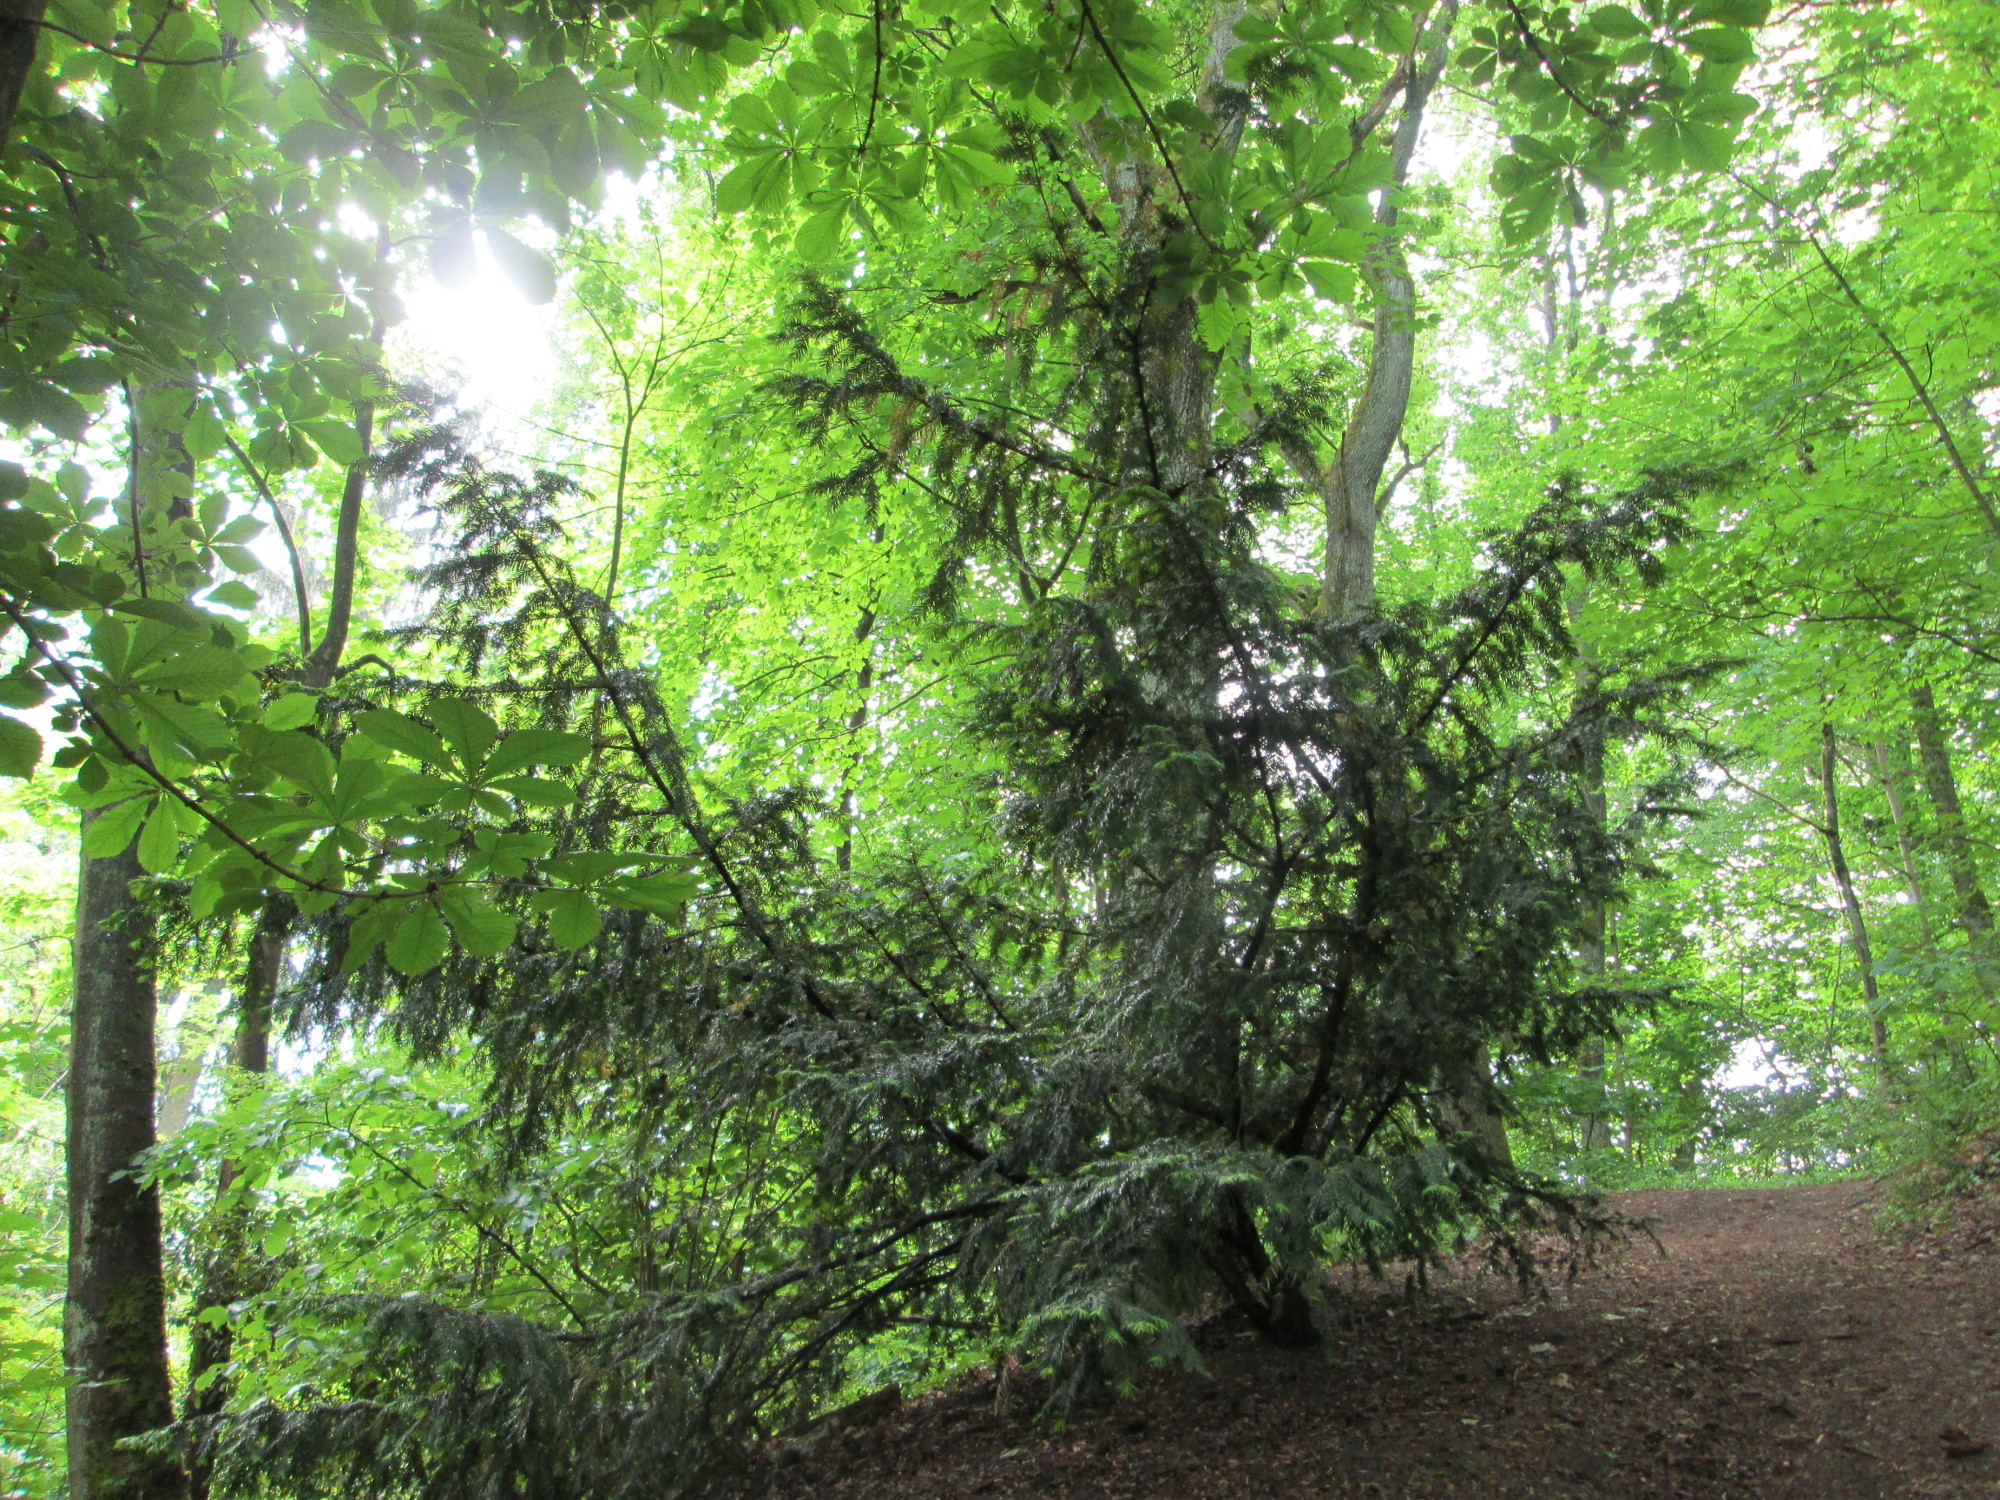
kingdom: Plantae
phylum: Tracheophyta
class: Pinopsida
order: Pinales
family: Taxaceae
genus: Taxus
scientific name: Taxus baccata
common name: Yew
